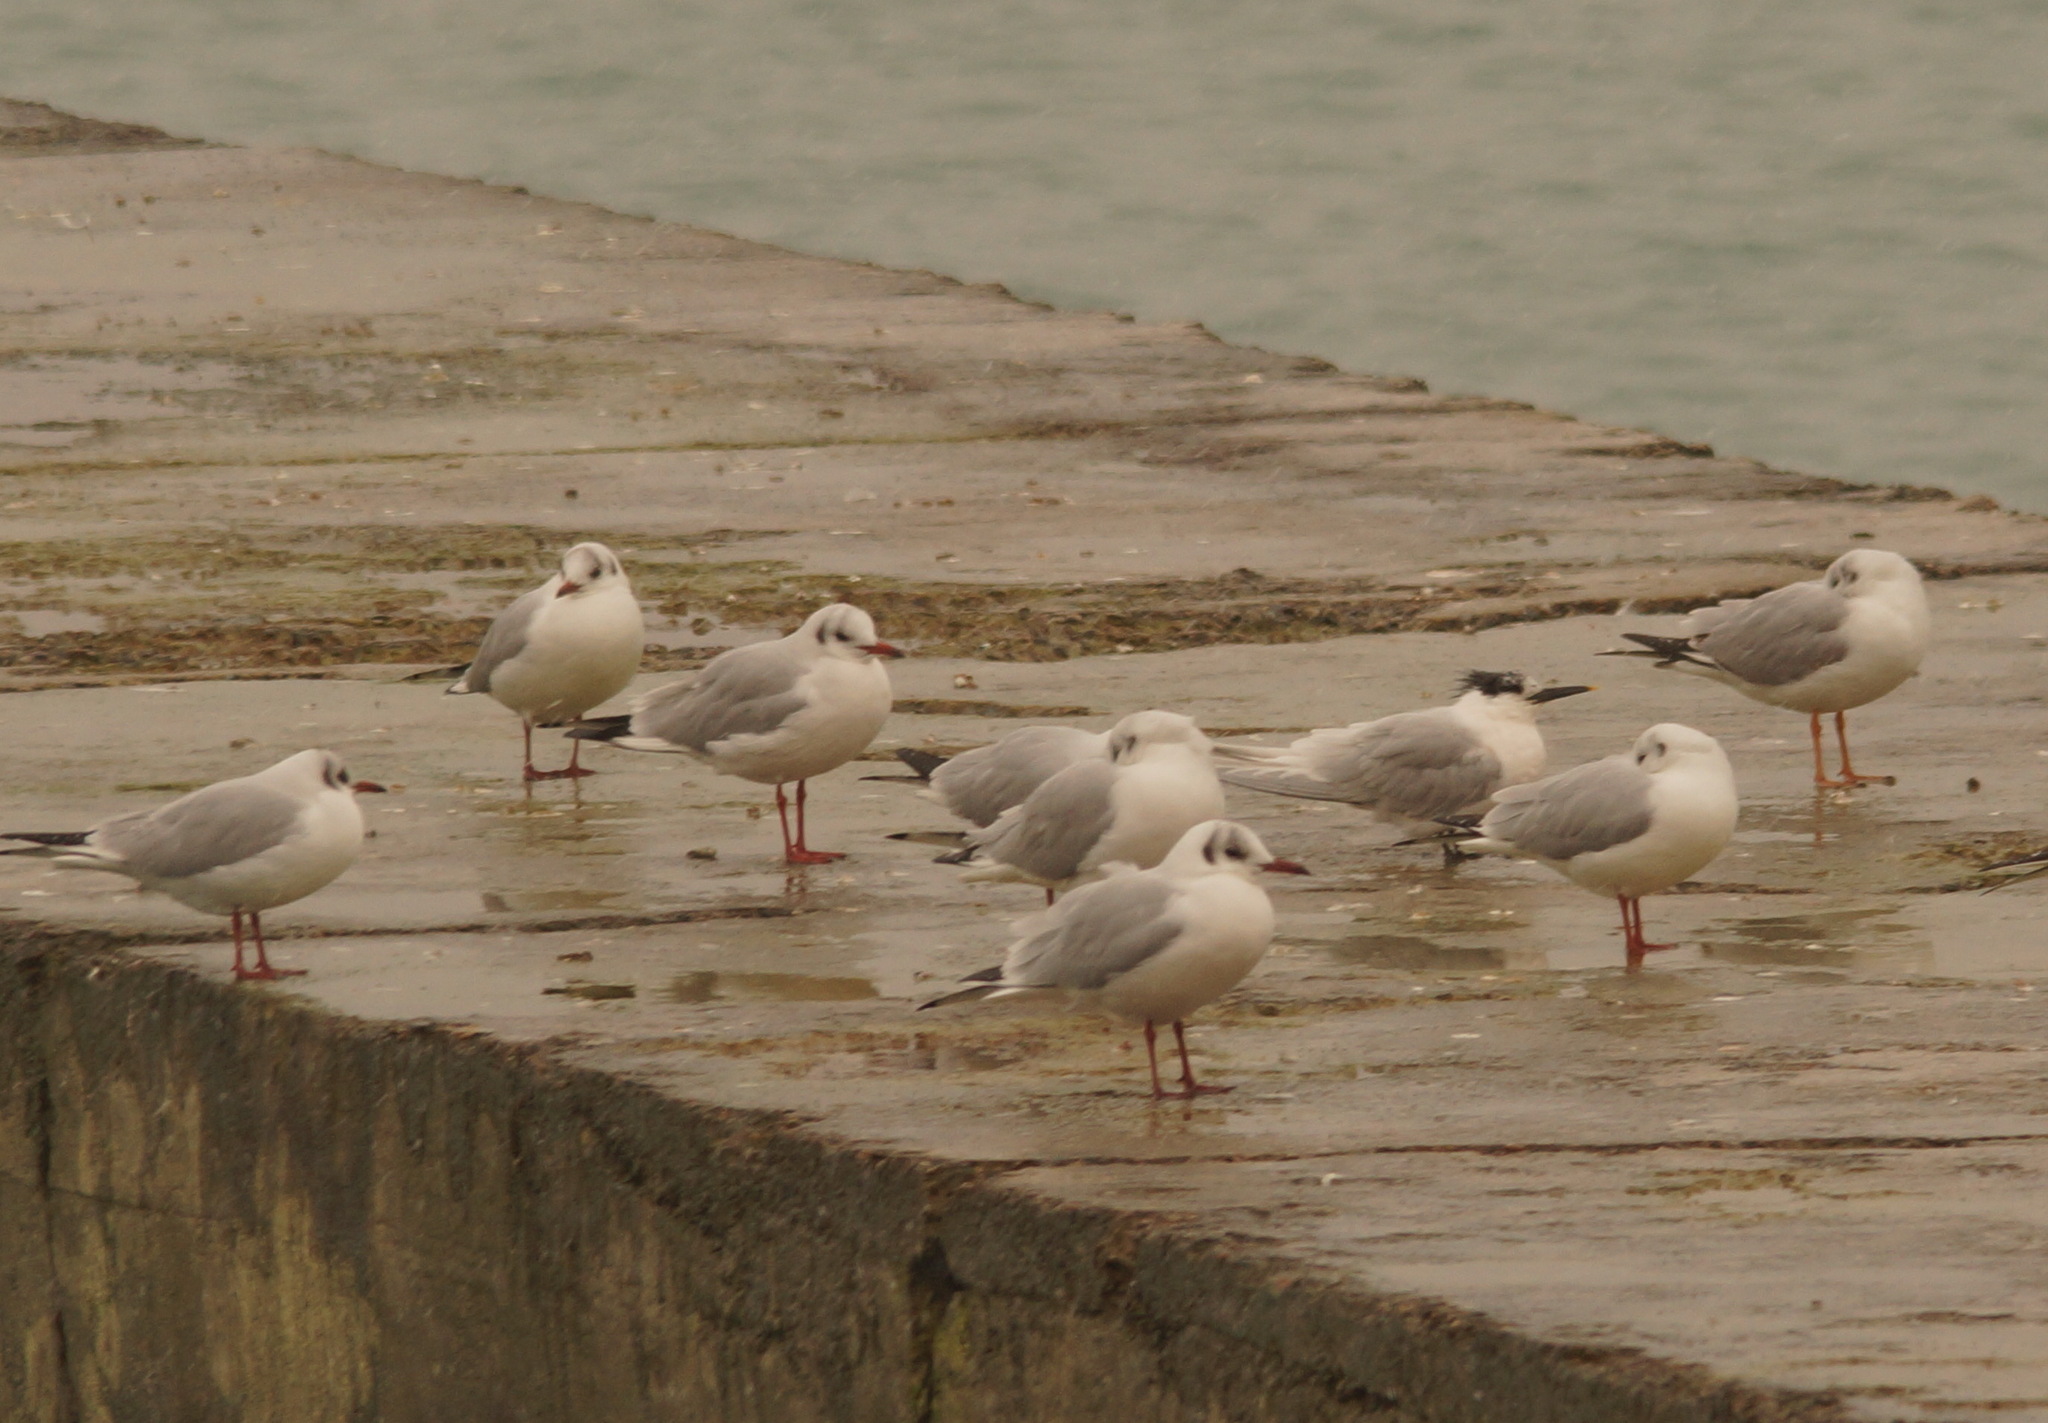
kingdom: Animalia
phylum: Chordata
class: Aves
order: Charadriiformes
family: Laridae
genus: Thalasseus
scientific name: Thalasseus sandvicensis
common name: Sandwich tern
